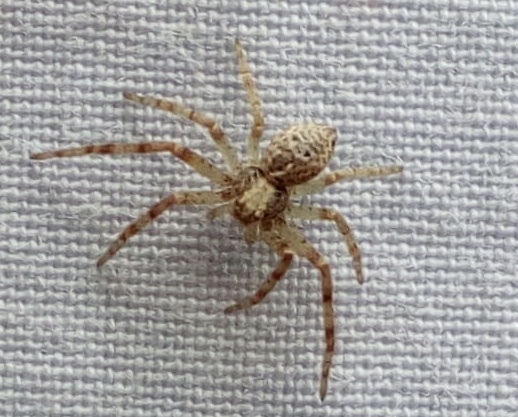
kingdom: Animalia
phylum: Arthropoda
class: Arachnida
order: Araneae
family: Philodromidae
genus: Philodromus
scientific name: Philodromus
